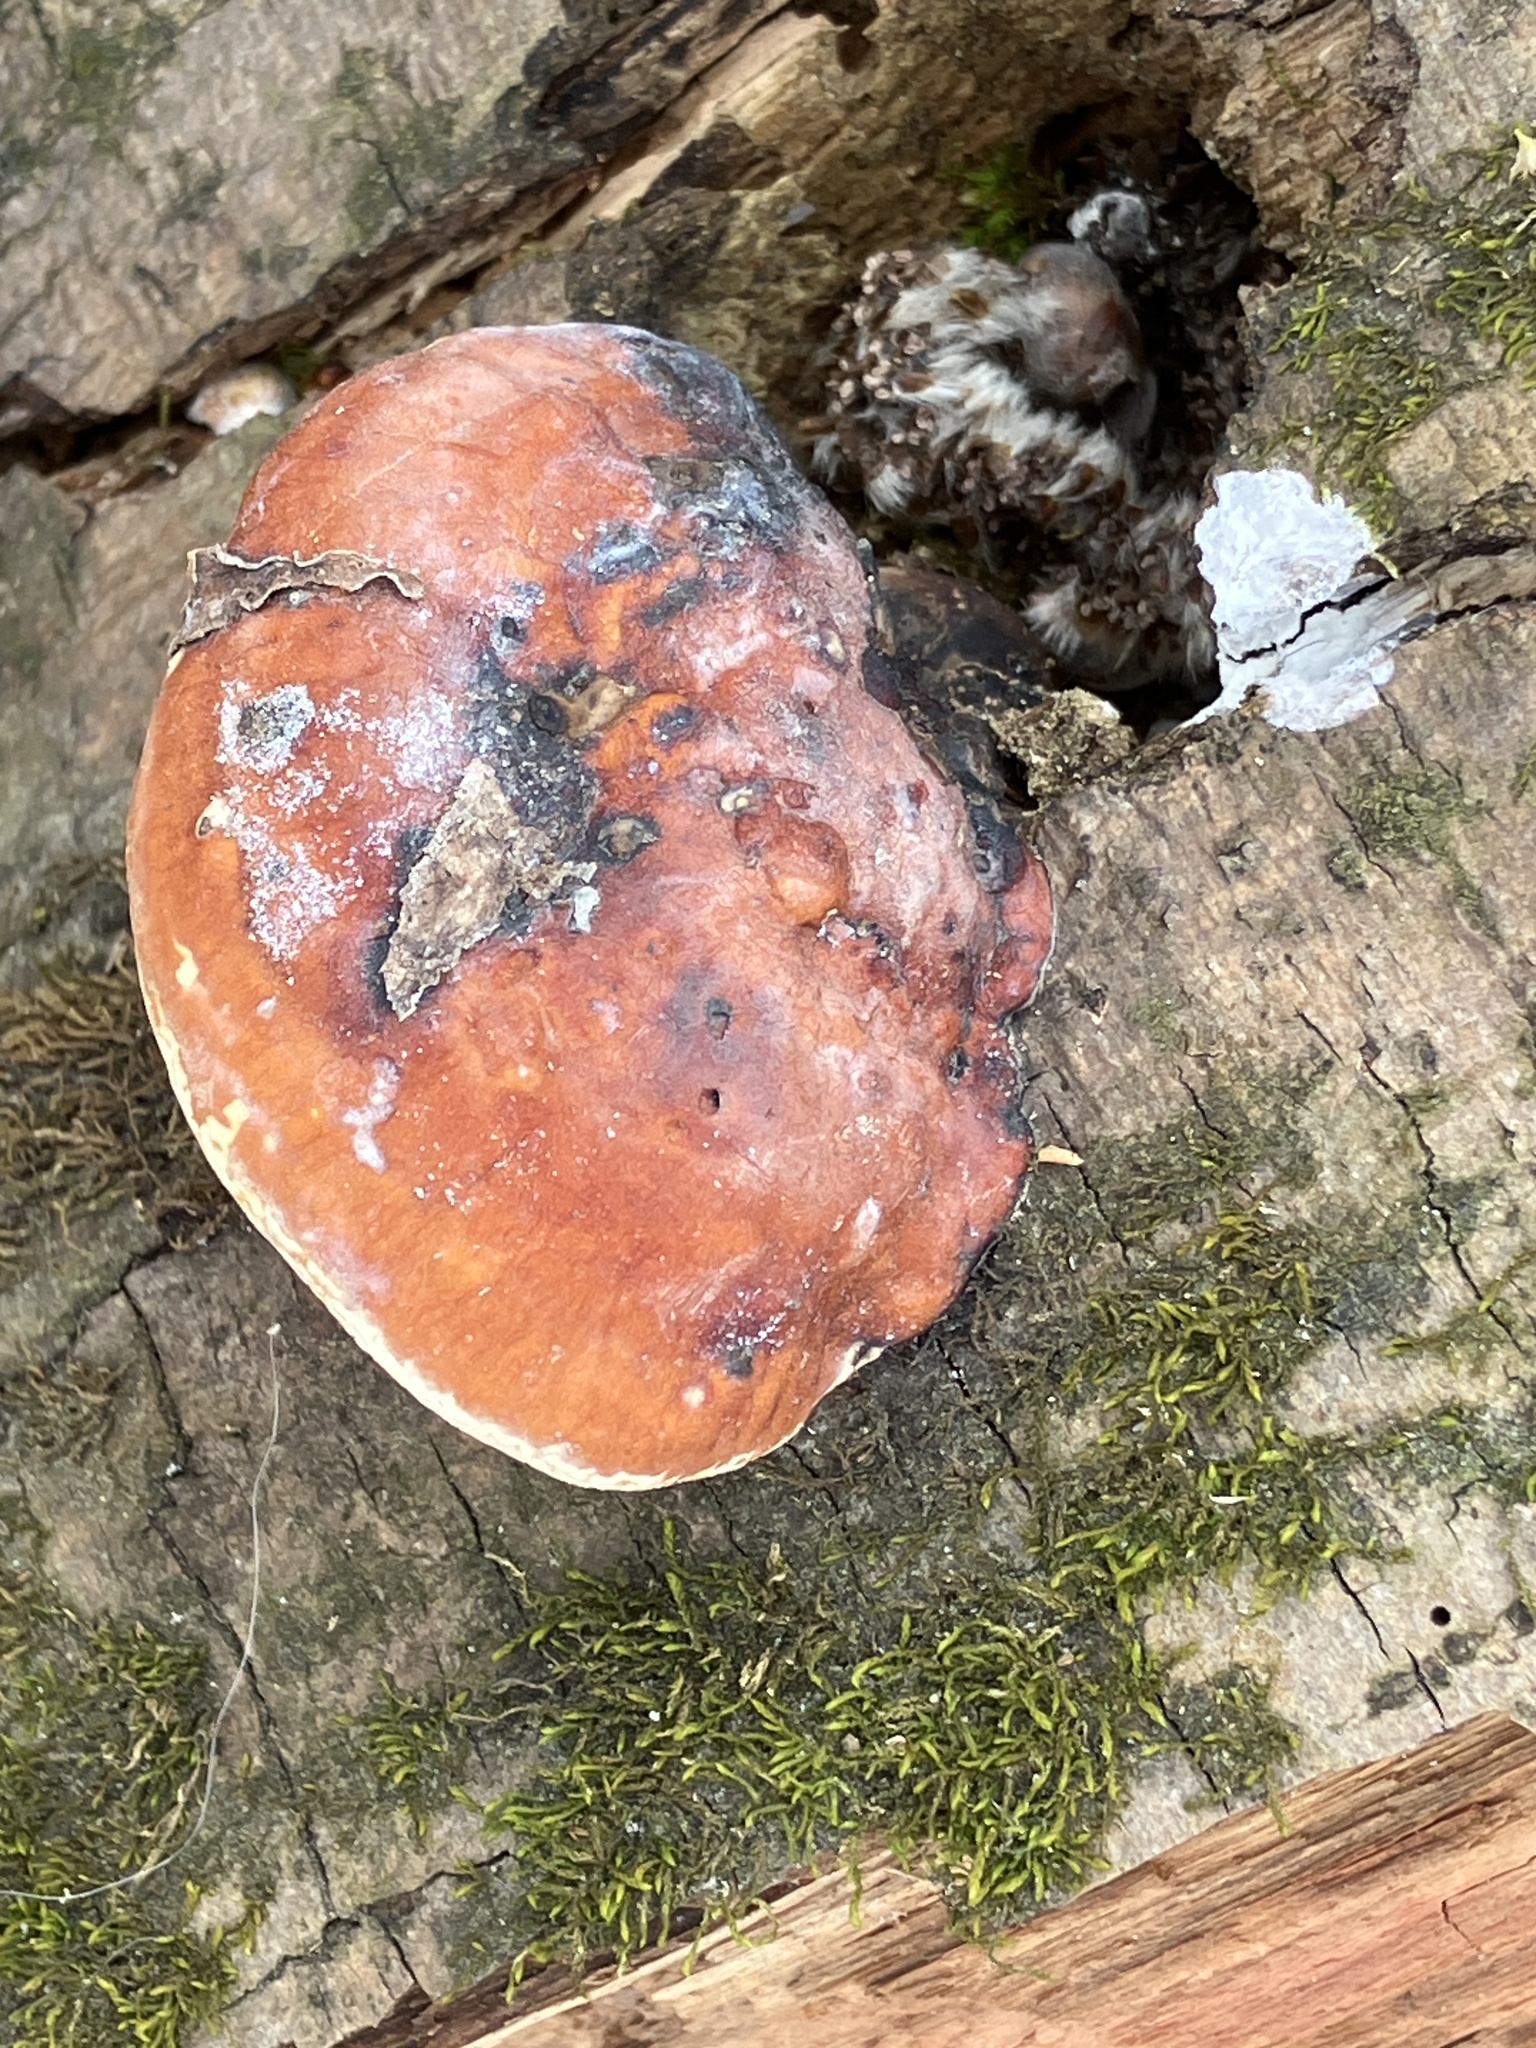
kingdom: Fungi
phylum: Basidiomycota
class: Agaricomycetes
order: Polyporales
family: Fomitopsidaceae
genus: Fomitopsis
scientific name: Fomitopsis pinicola
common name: Red-belted bracket
